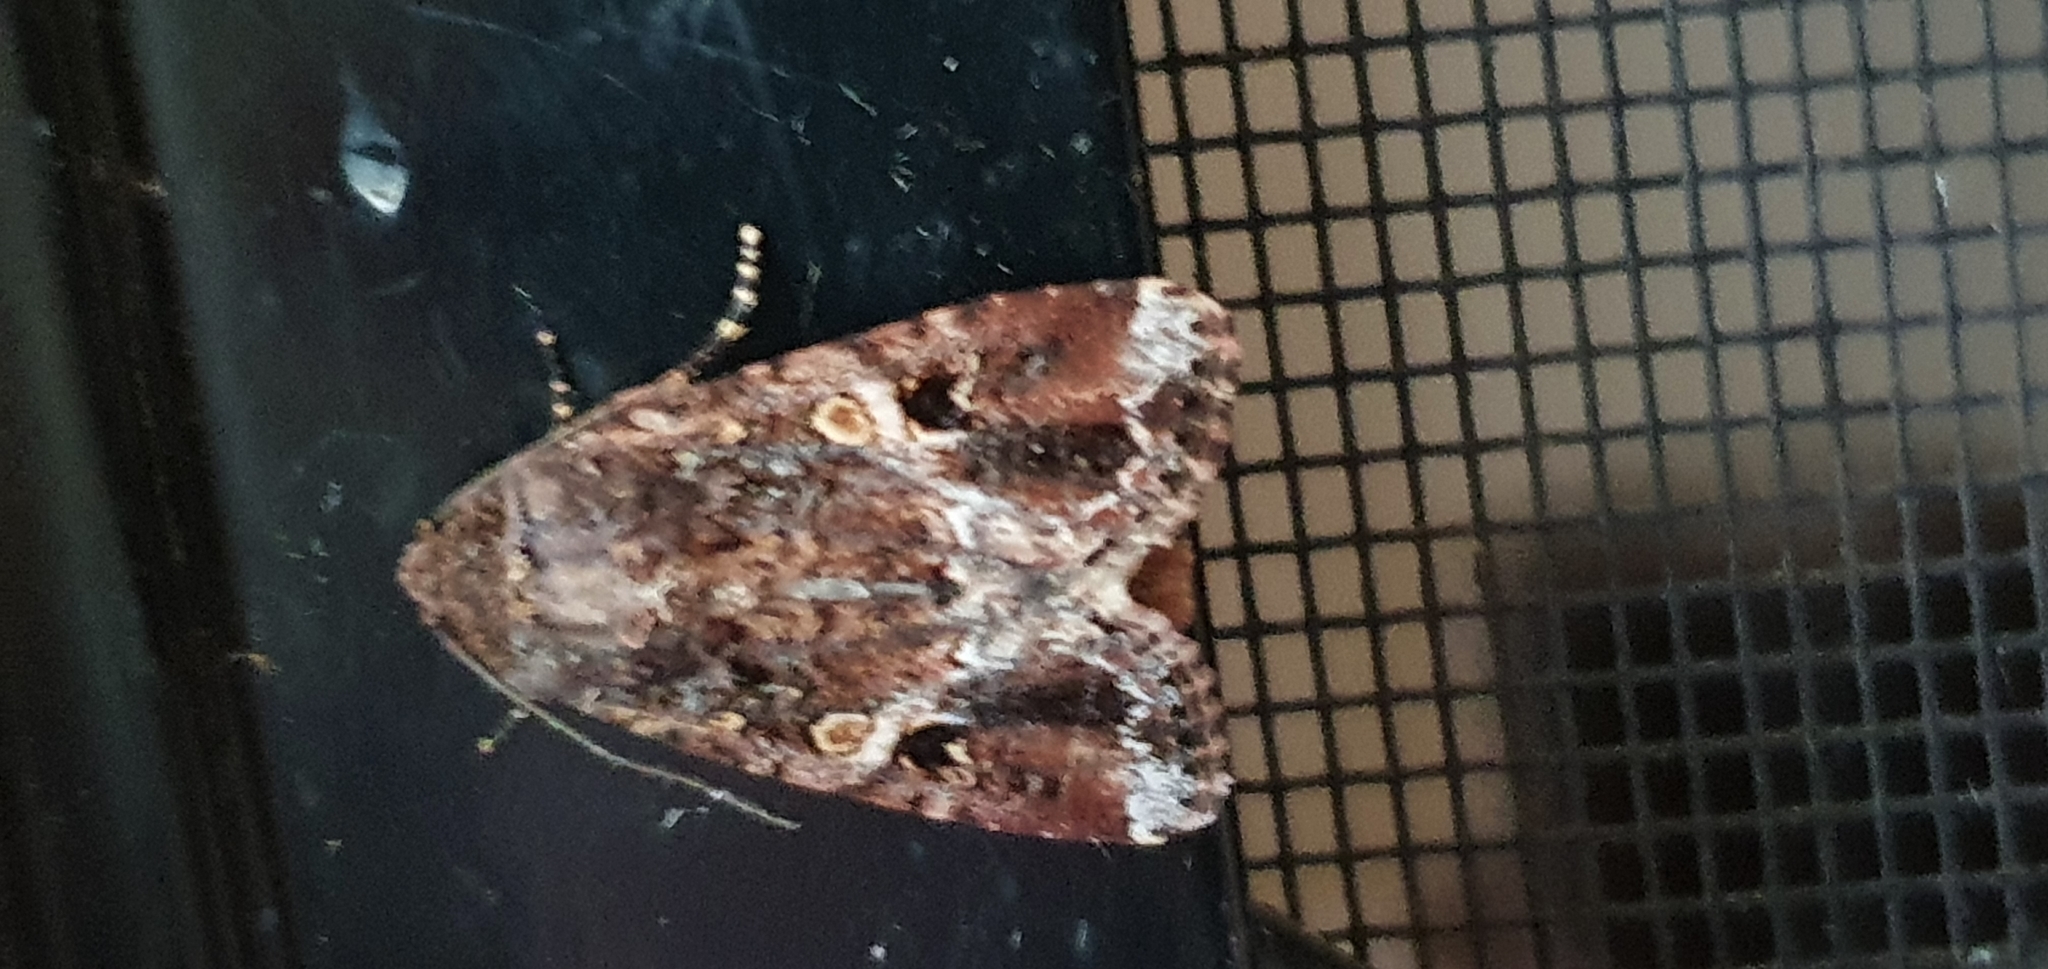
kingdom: Animalia
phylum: Arthropoda
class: Insecta
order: Lepidoptera
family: Noctuidae
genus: Spodoptera
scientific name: Spodoptera mauritia
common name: Lawn armyworm
